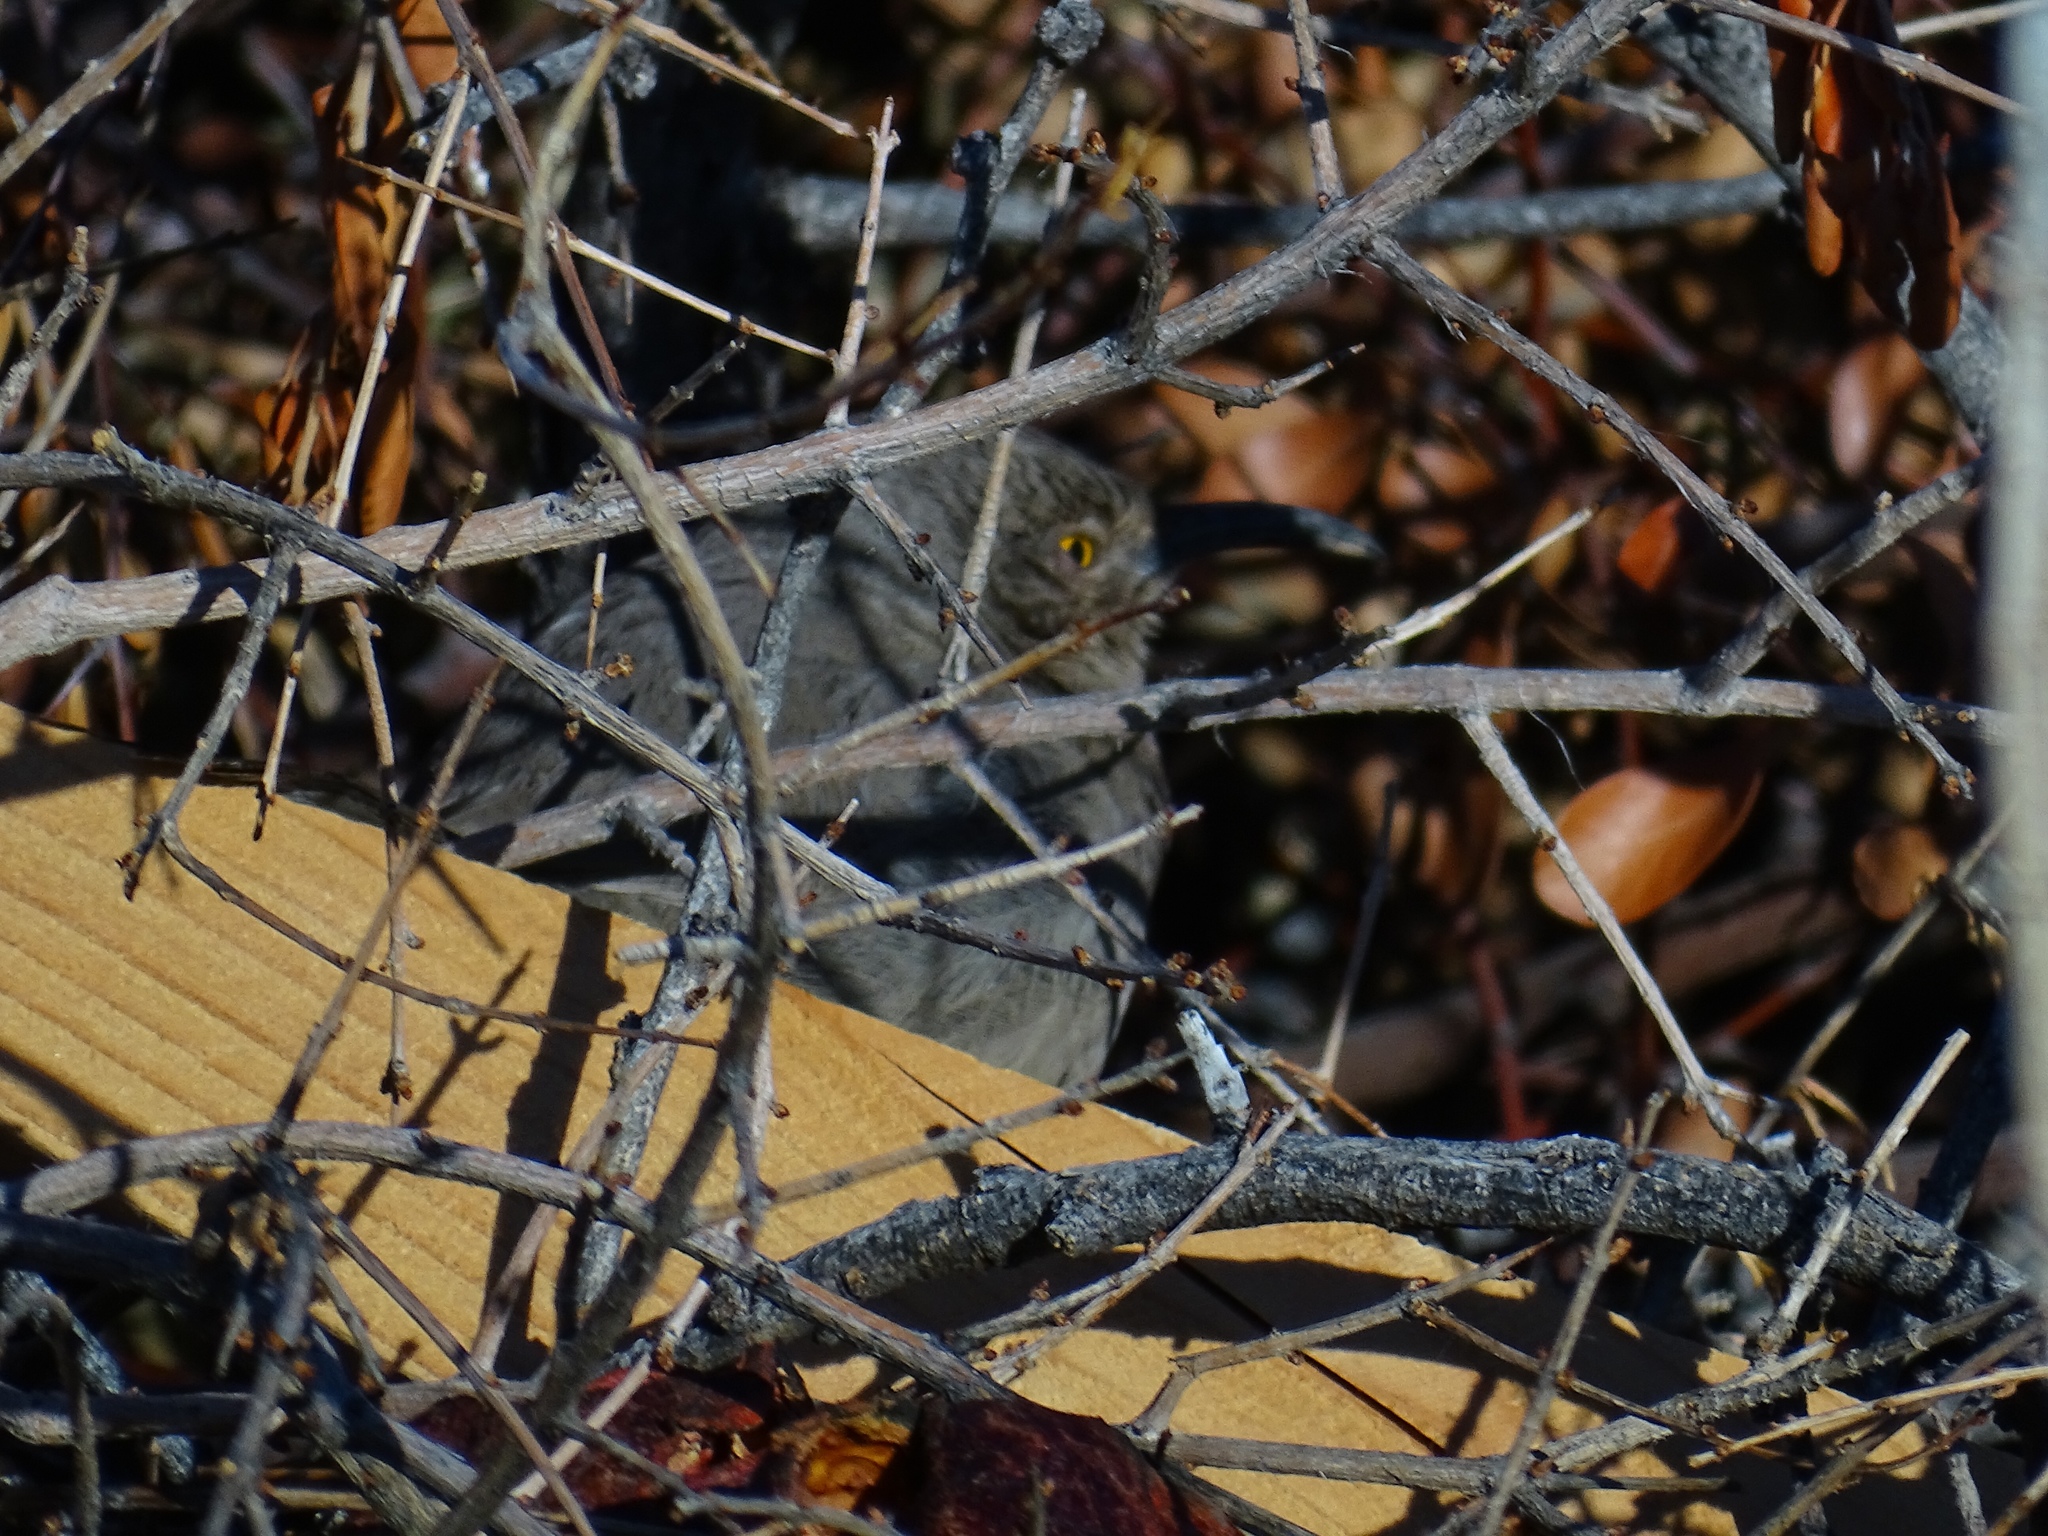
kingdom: Animalia
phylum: Chordata
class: Aves
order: Passeriformes
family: Mimidae
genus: Toxostoma
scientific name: Toxostoma curvirostre
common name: Curve-billed thrasher
